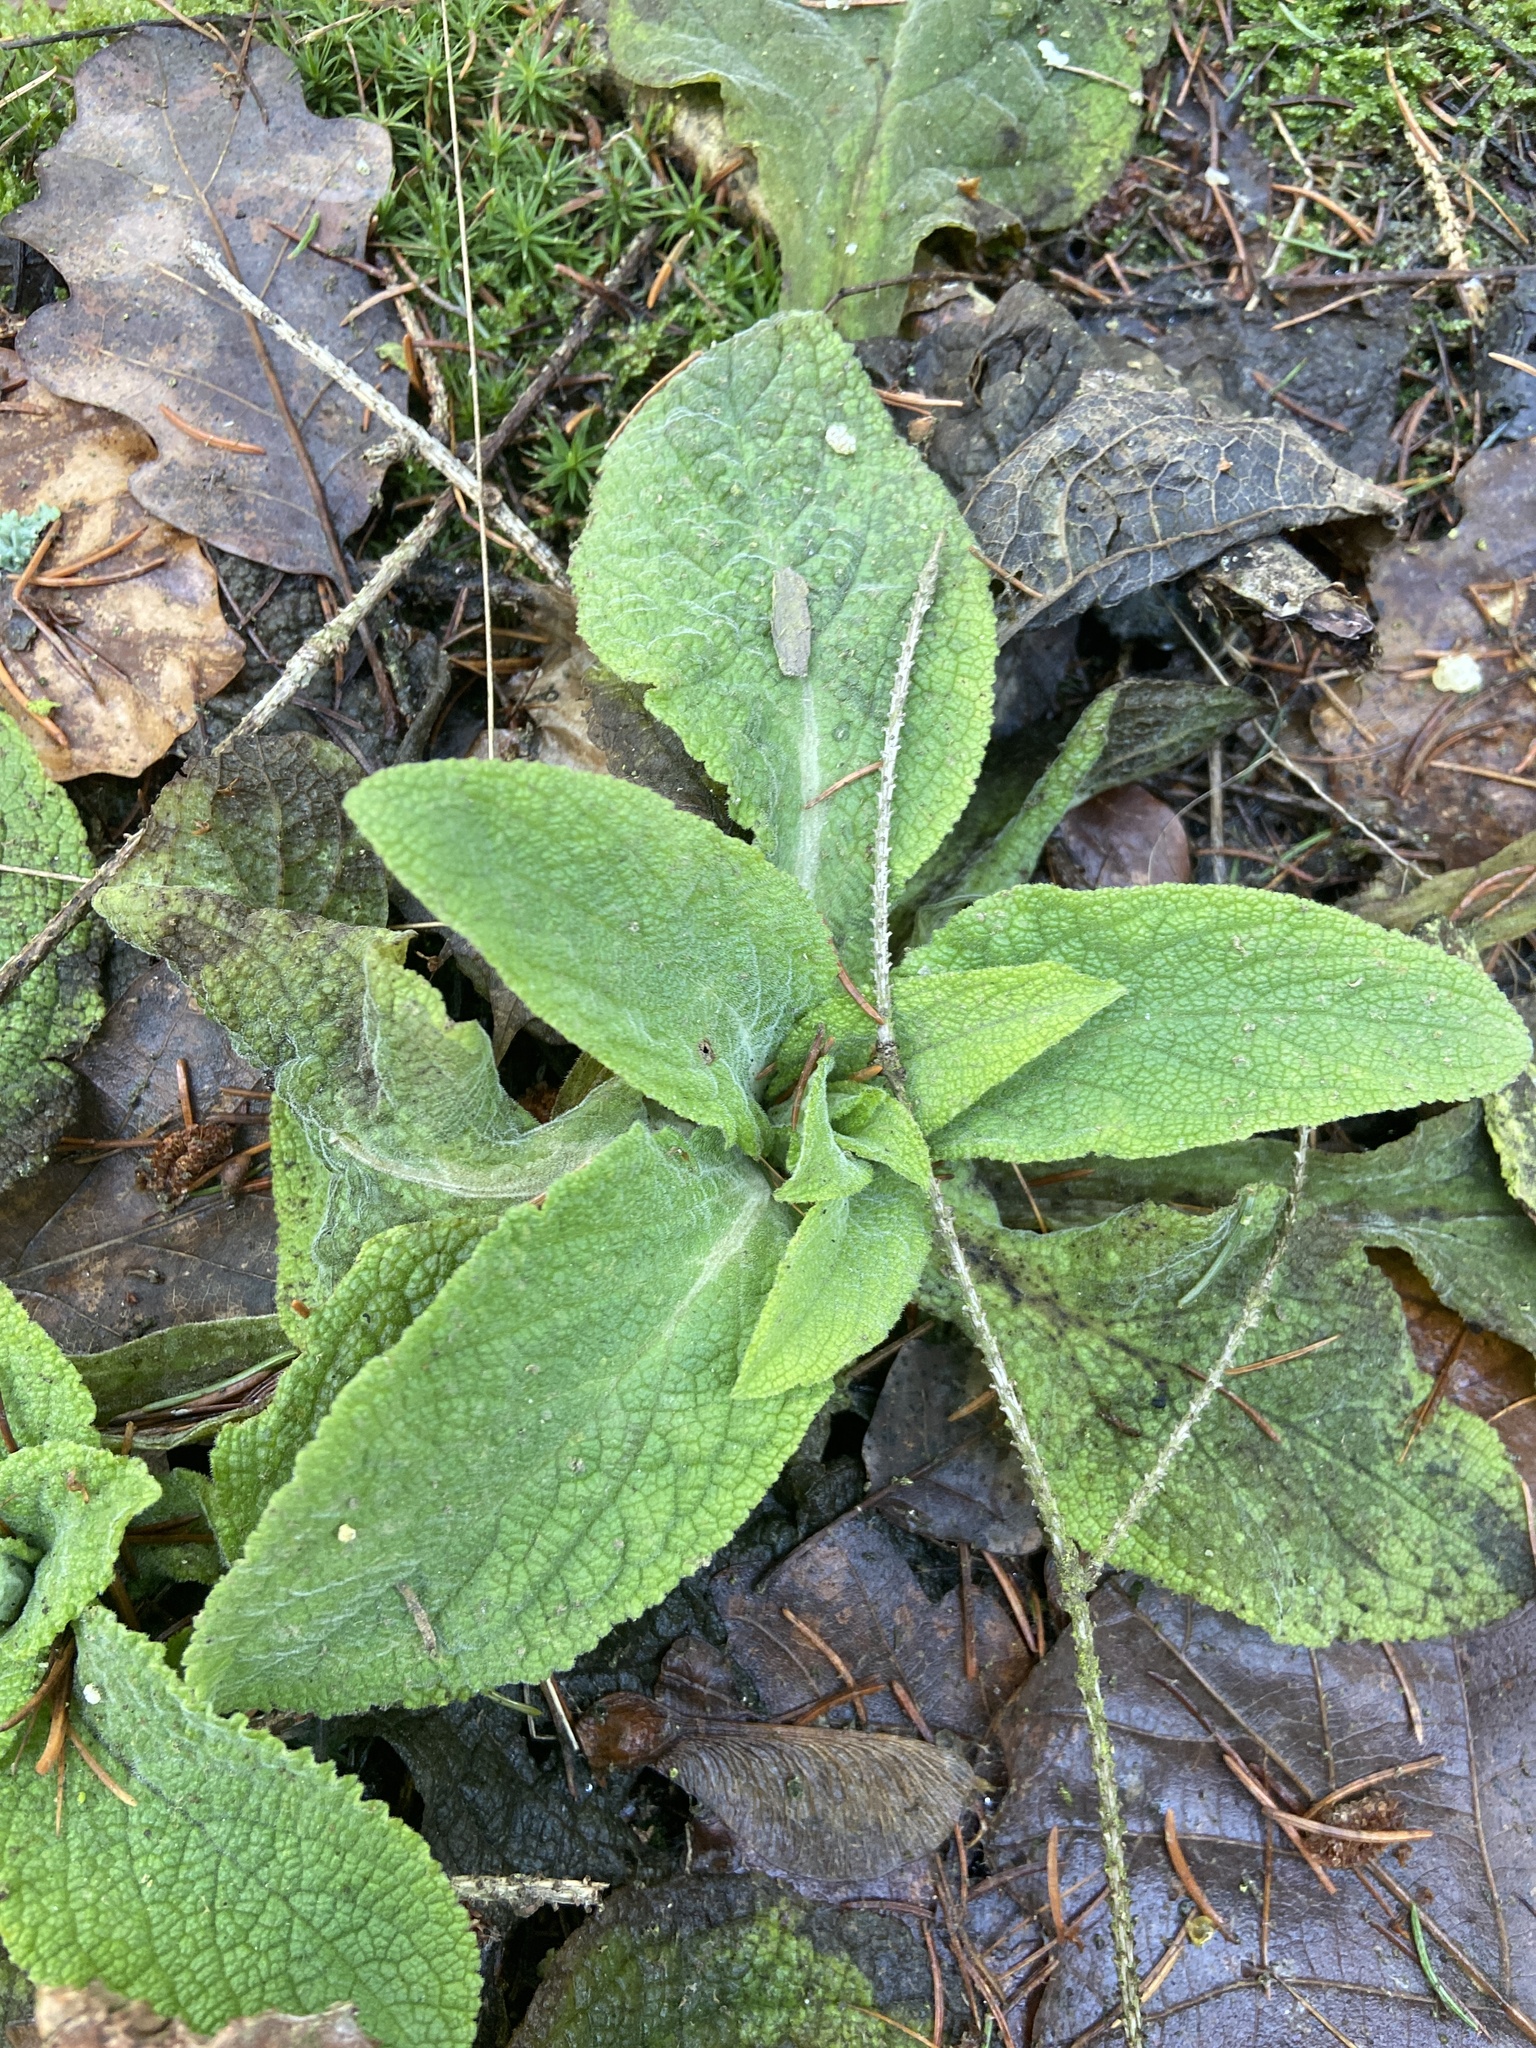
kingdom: Plantae
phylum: Tracheophyta
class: Magnoliopsida
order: Lamiales
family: Plantaginaceae
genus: Digitalis
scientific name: Digitalis purpurea
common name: Foxglove
